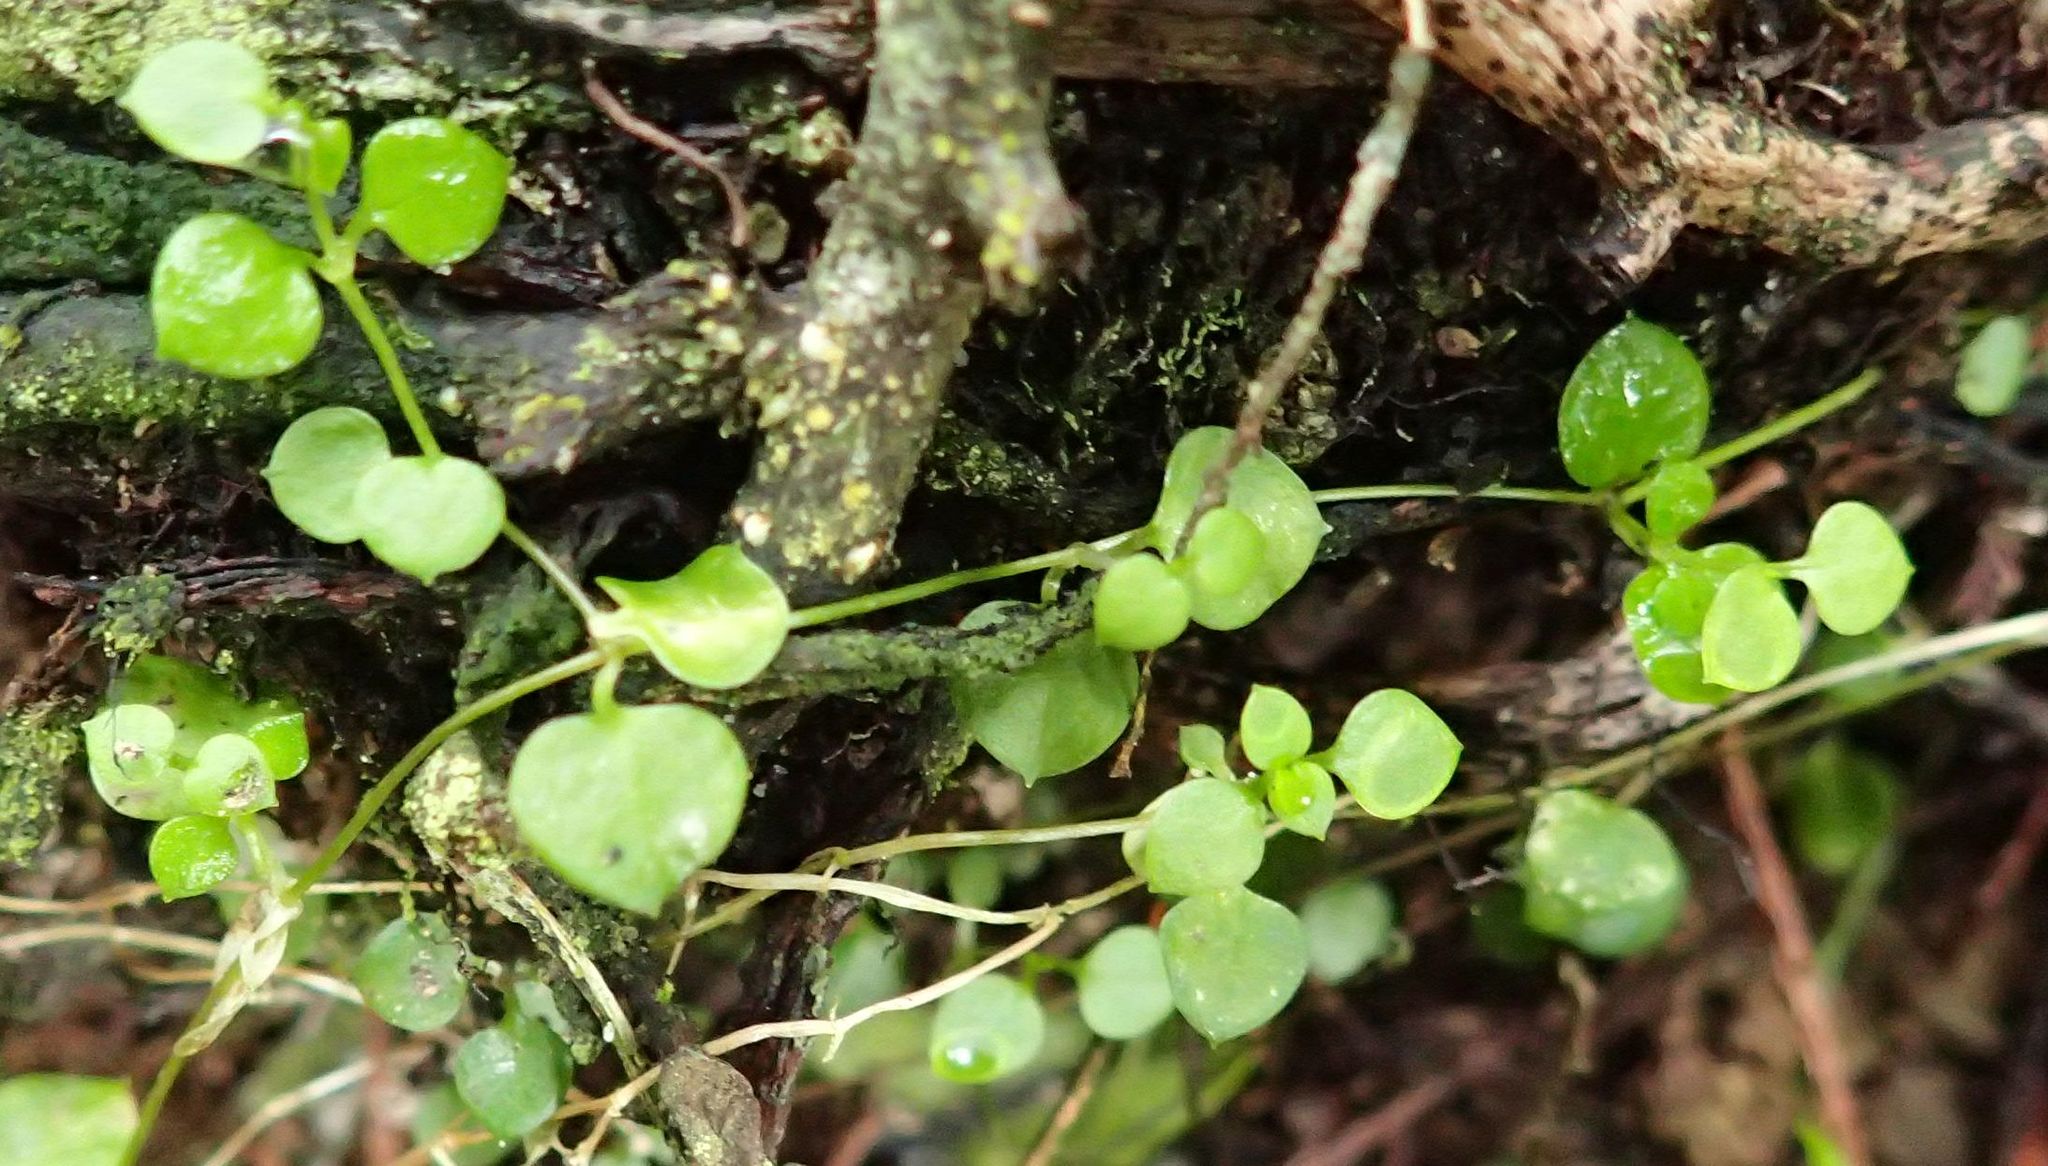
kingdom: Plantae
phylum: Tracheophyta
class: Magnoliopsida
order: Caryophyllales
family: Caryophyllaceae
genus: Stellaria
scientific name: Stellaria parviflora
